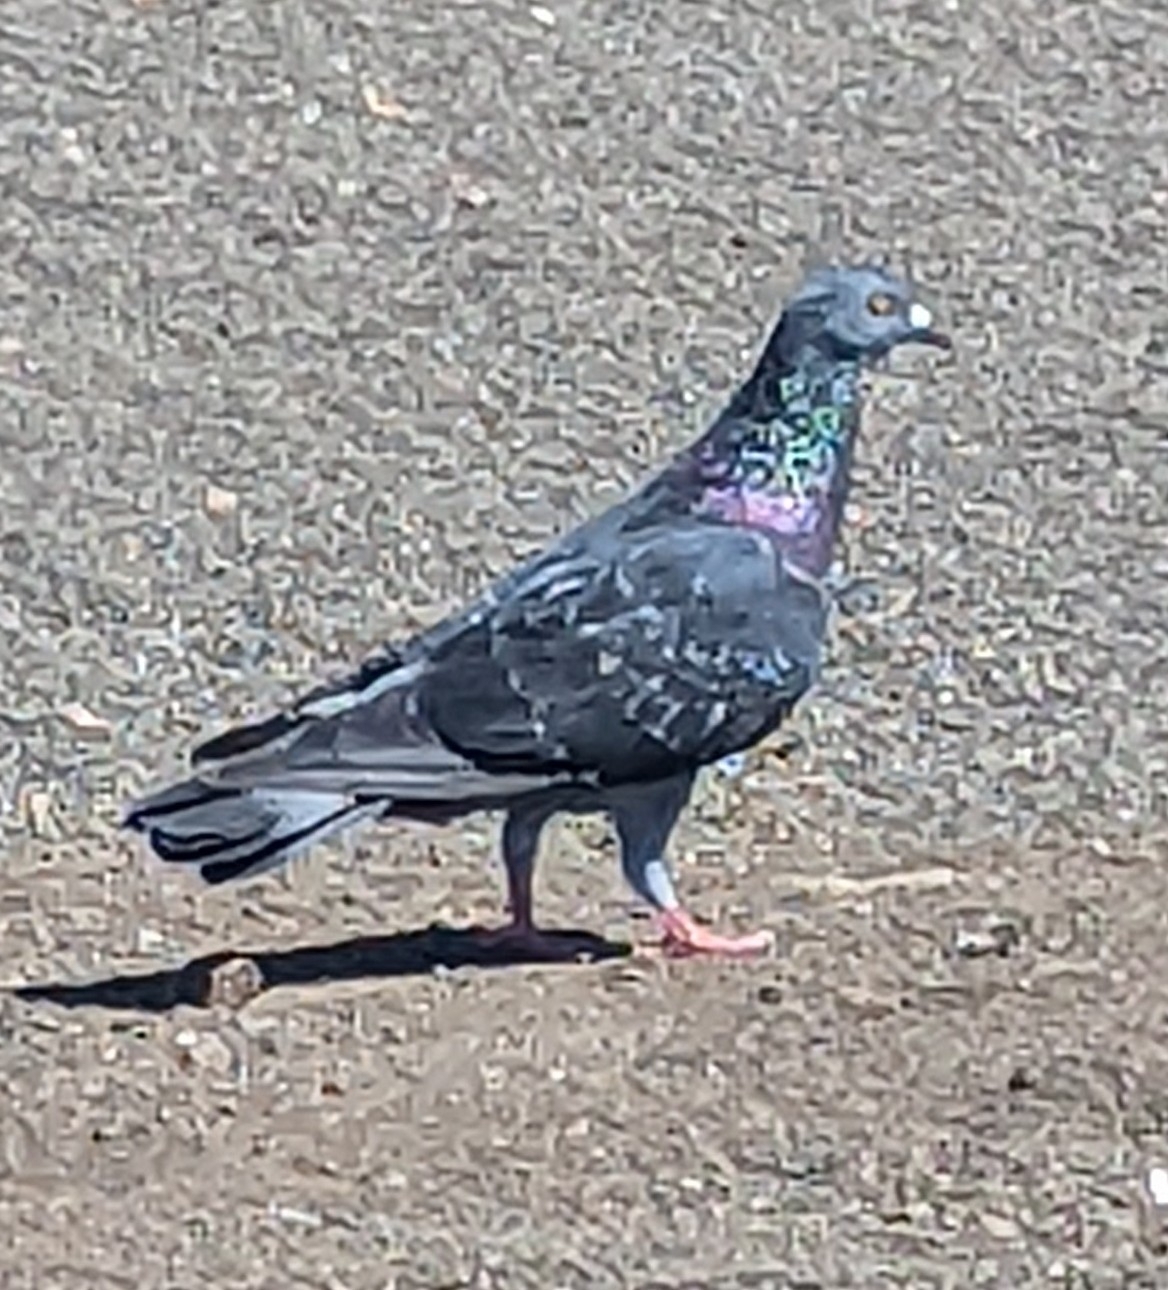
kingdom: Animalia
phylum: Chordata
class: Aves
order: Columbiformes
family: Columbidae
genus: Columba
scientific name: Columba livia
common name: Rock pigeon
